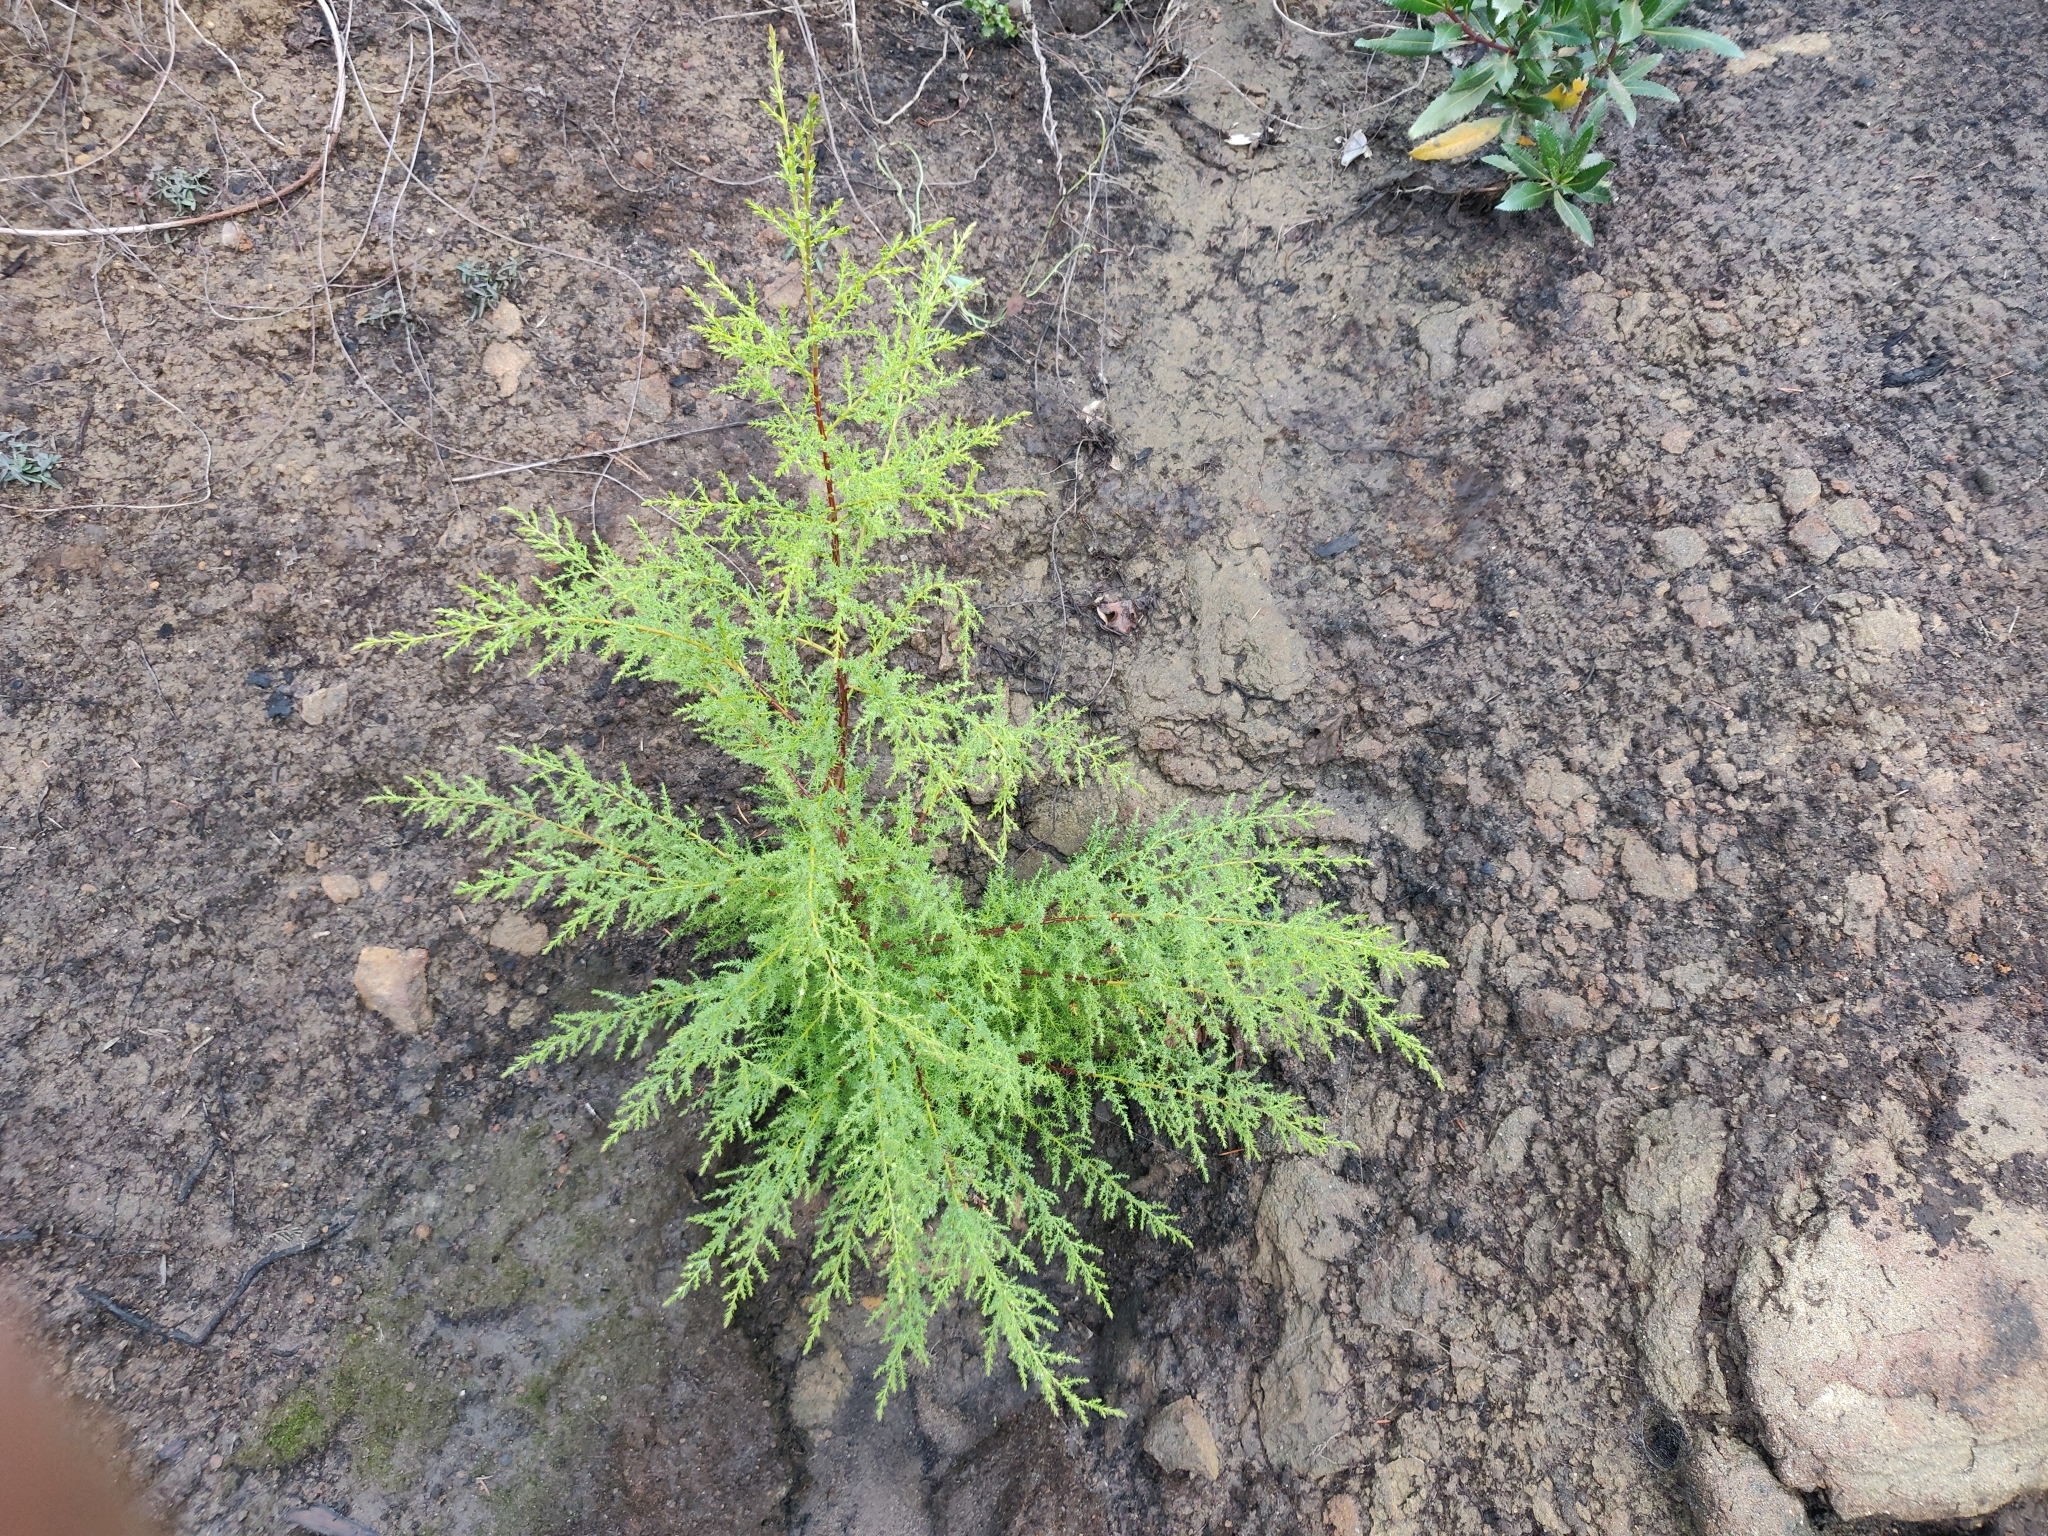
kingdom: Plantae
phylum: Tracheophyta
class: Pinopsida
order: Pinales
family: Cupressaceae
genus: Cupressus
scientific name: Cupressus goveniana
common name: Gowen cypress
